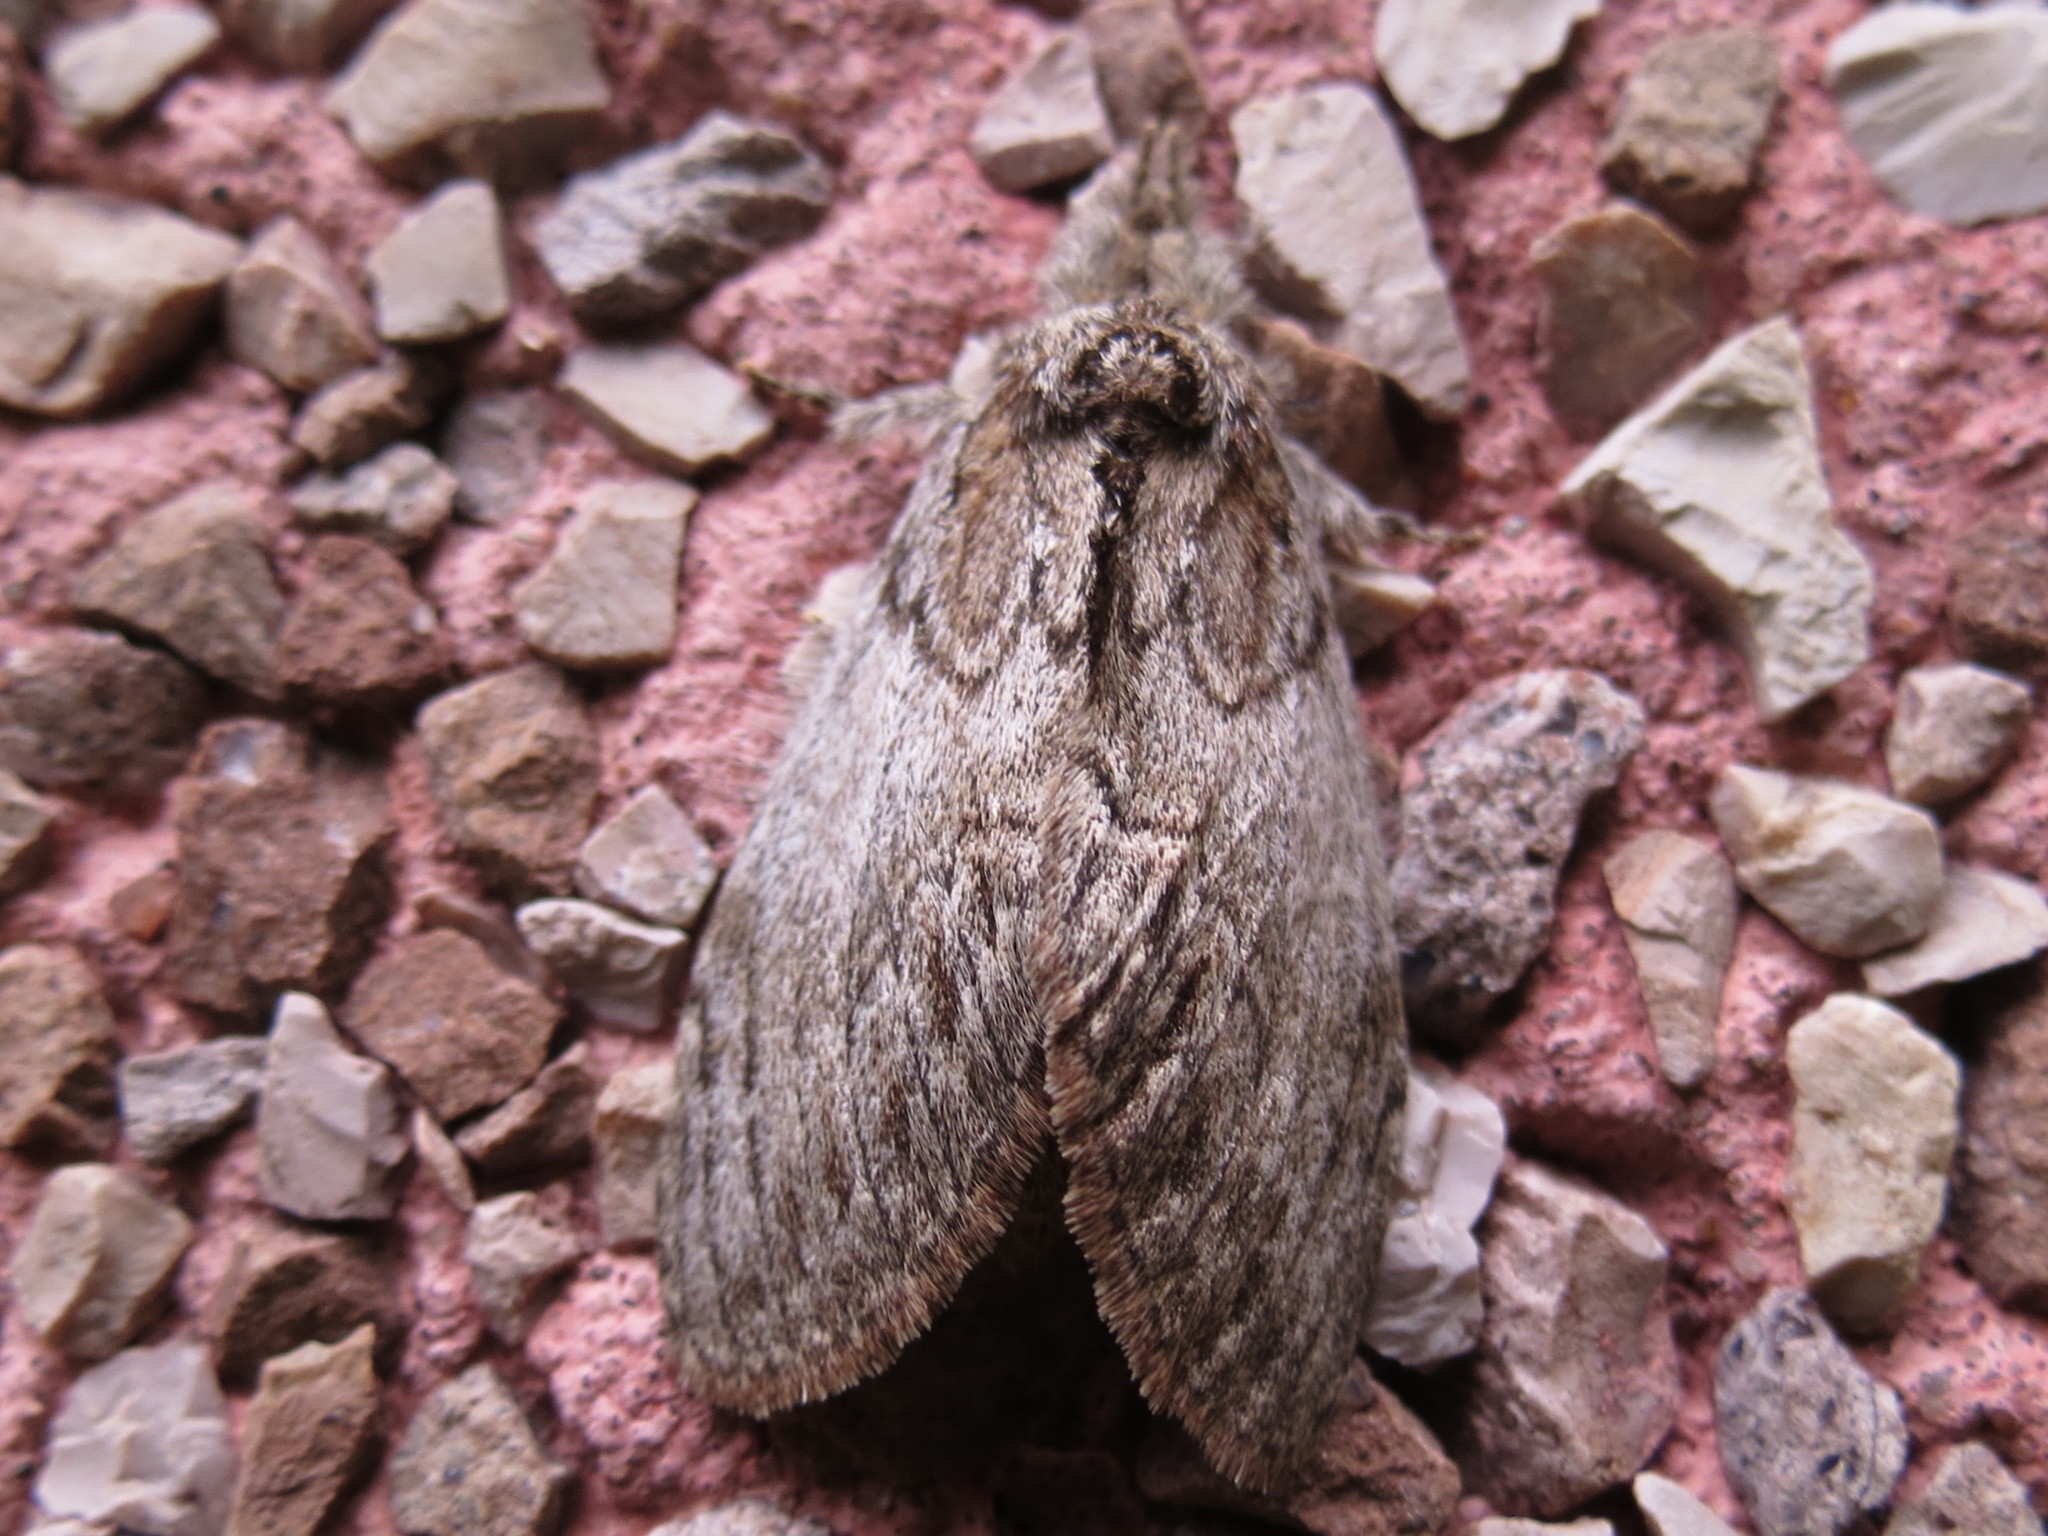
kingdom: Animalia
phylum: Arthropoda
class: Insecta
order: Lepidoptera
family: Notodontidae
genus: Peridea
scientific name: Peridea basitriens
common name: Oval-based prominent
